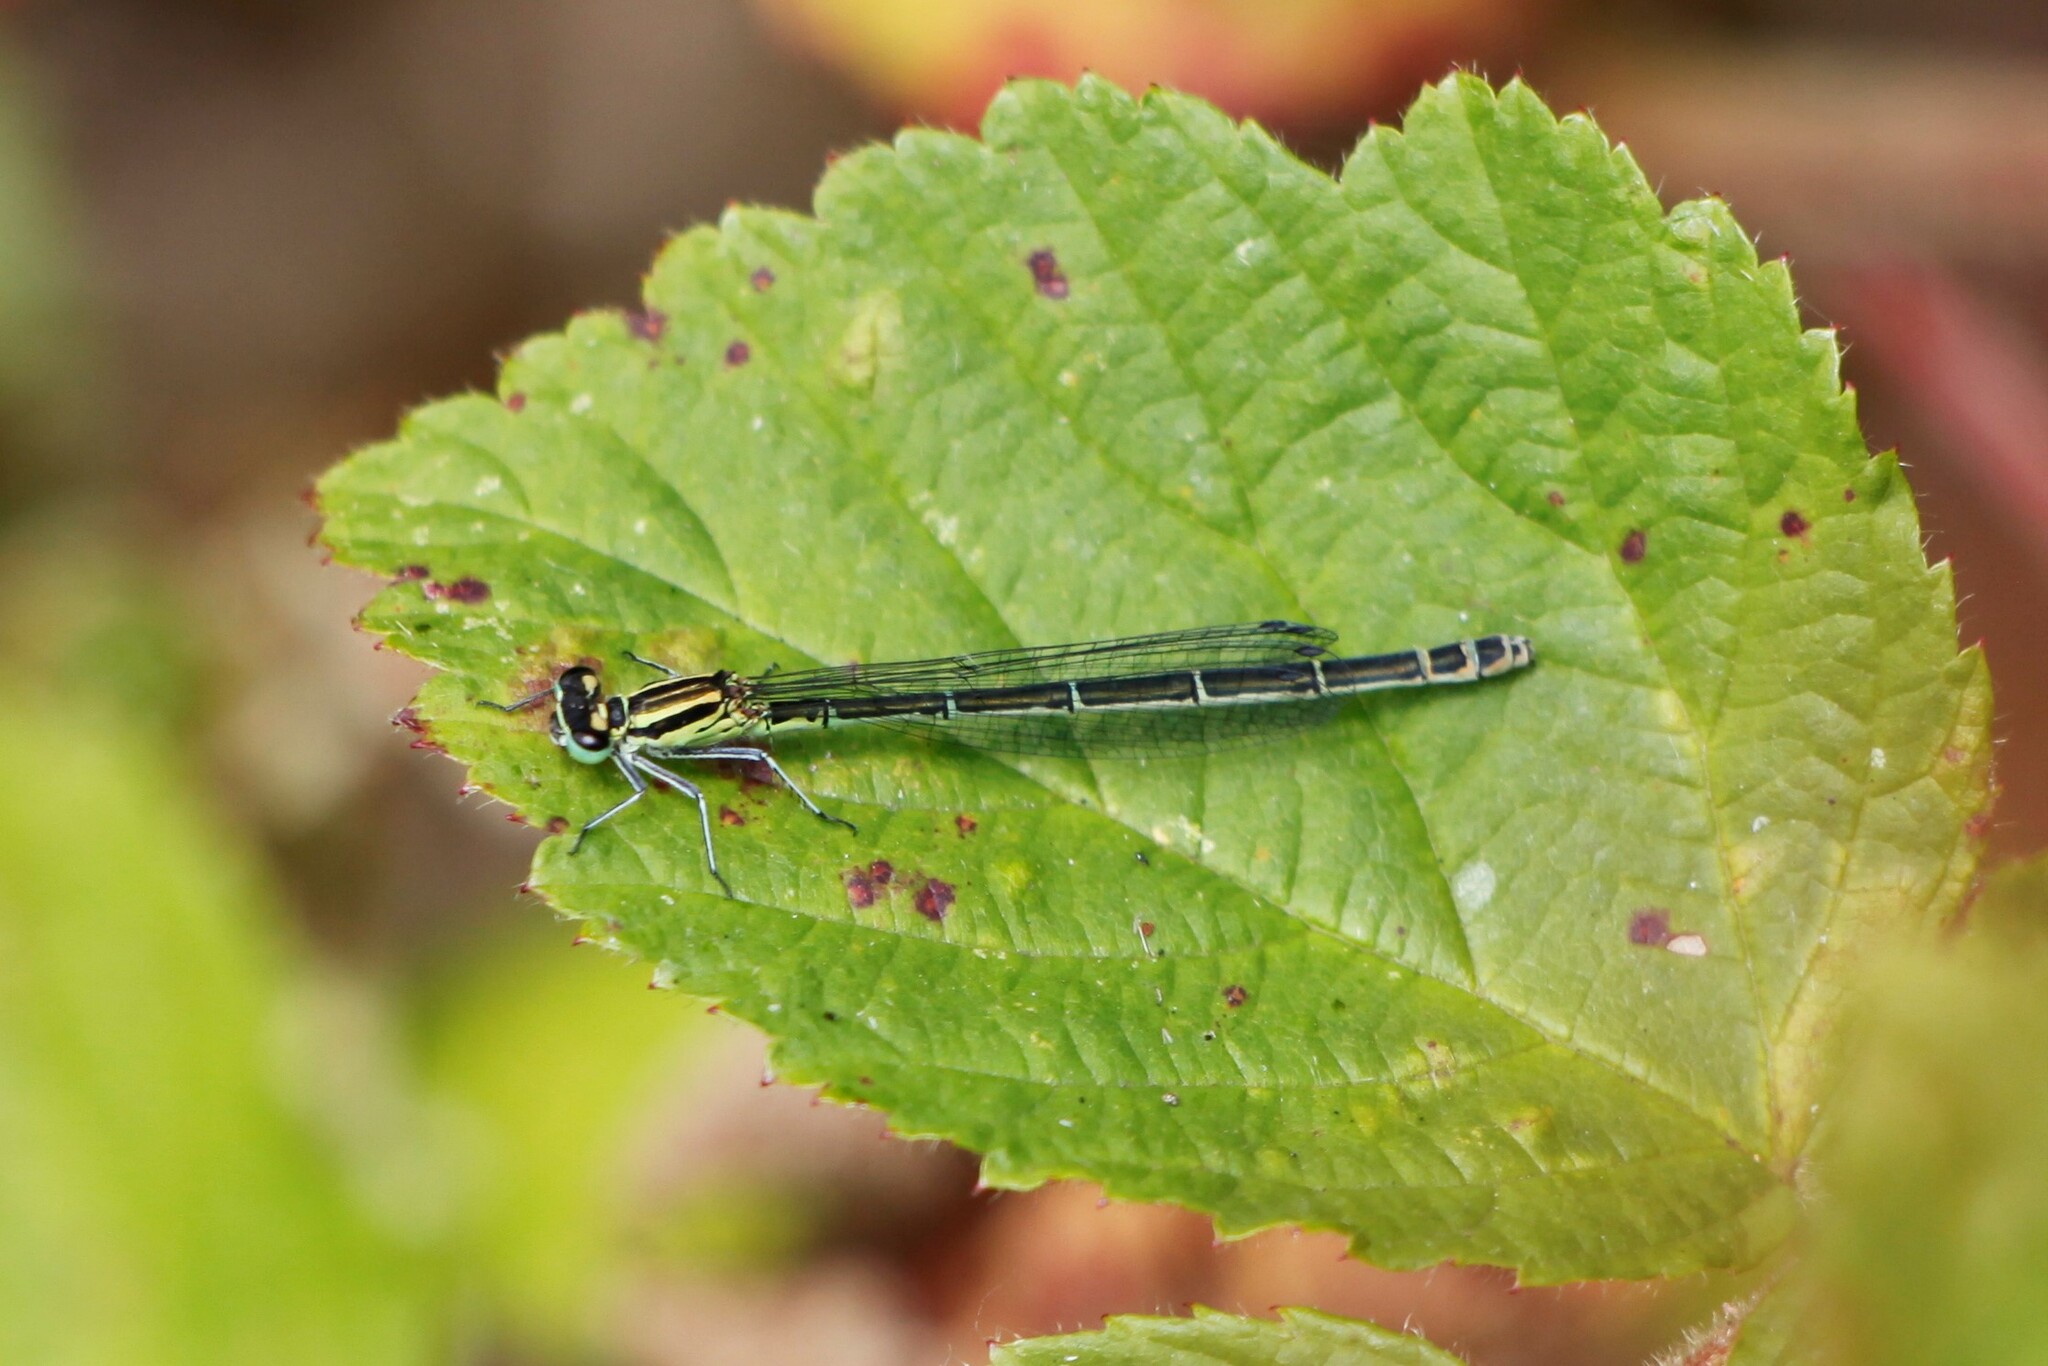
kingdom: Animalia
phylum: Arthropoda
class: Insecta
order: Odonata
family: Coenagrionidae
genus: Coenagrion
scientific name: Coenagrion puella
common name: Azure damselfly
